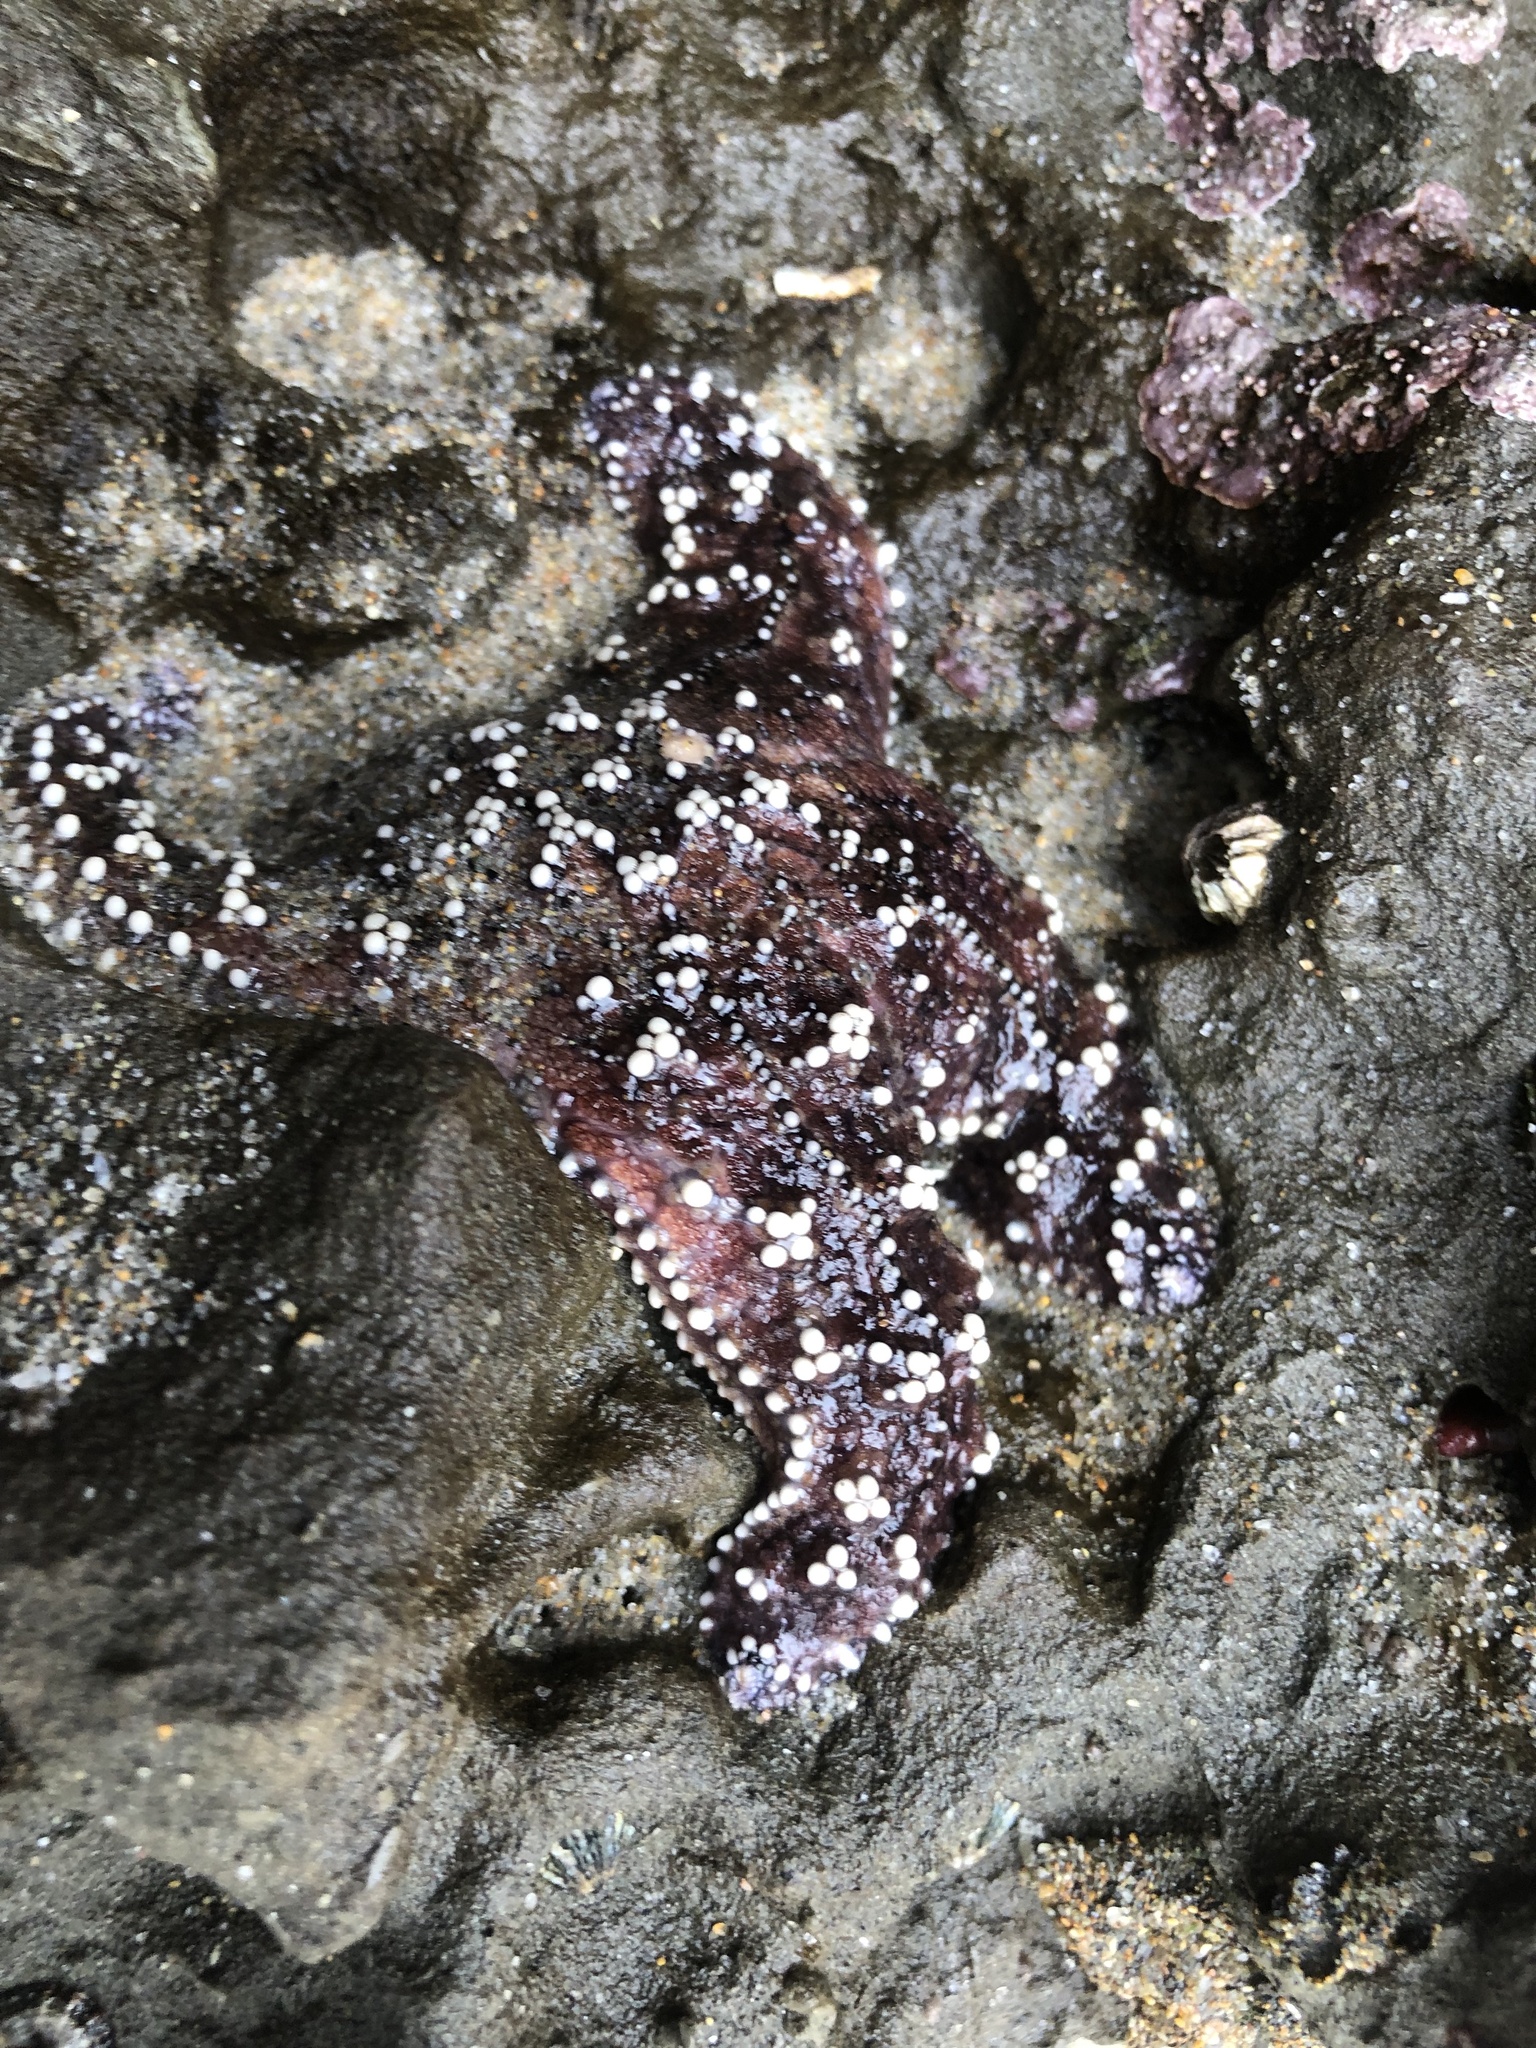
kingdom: Animalia
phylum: Echinodermata
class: Asteroidea
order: Forcipulatida
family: Asteriidae
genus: Pisaster
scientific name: Pisaster ochraceus
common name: Ochre stars
